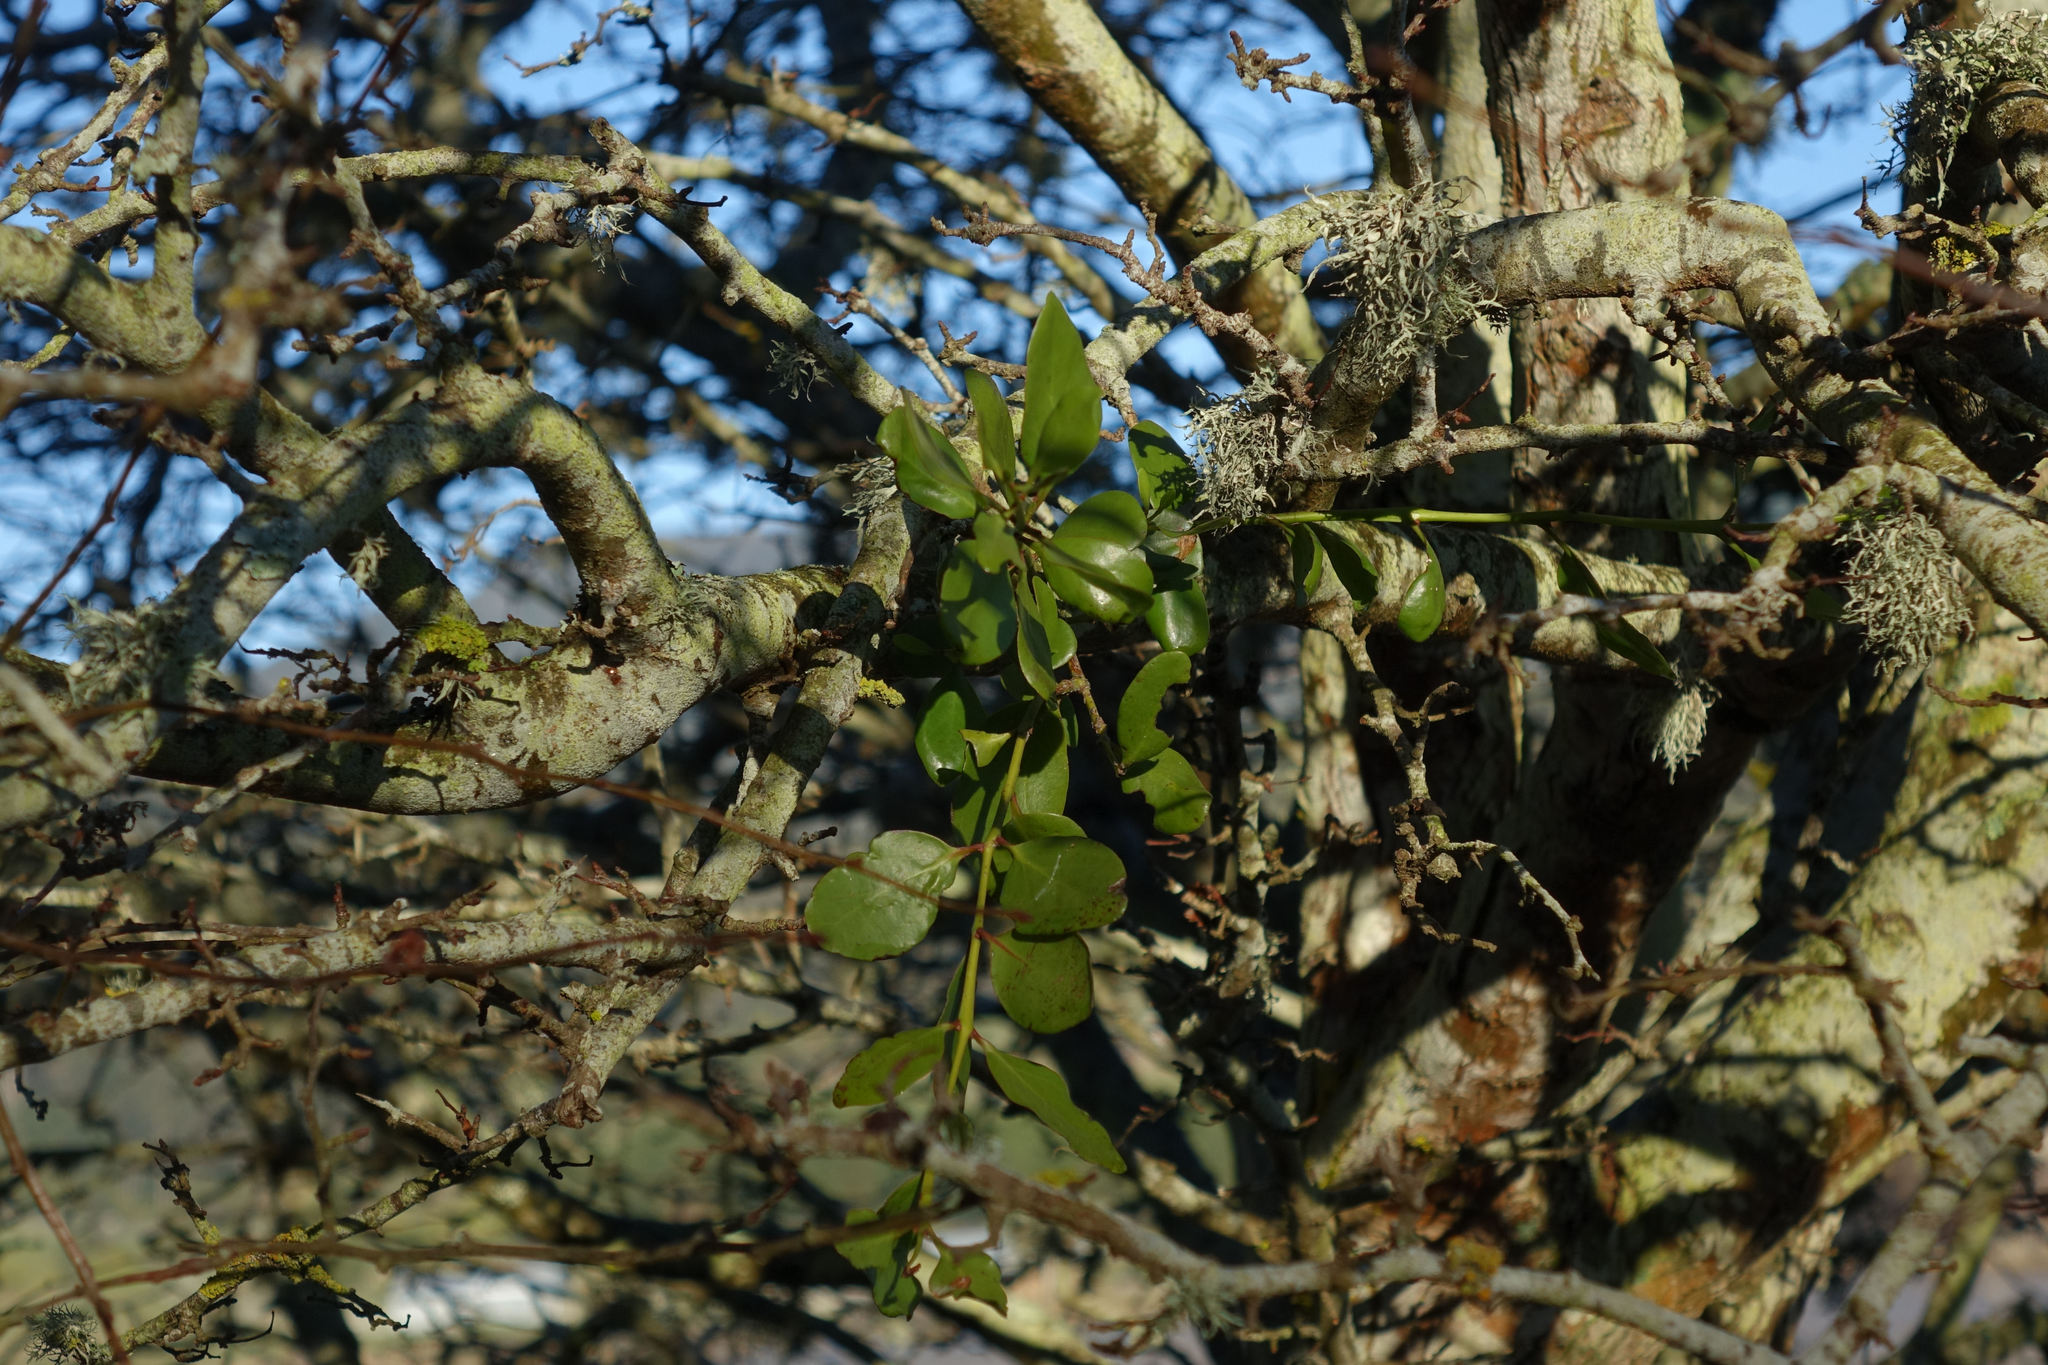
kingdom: Plantae
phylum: Tracheophyta
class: Magnoliopsida
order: Santalales
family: Loranthaceae
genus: Ileostylus
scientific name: Ileostylus micranthus
